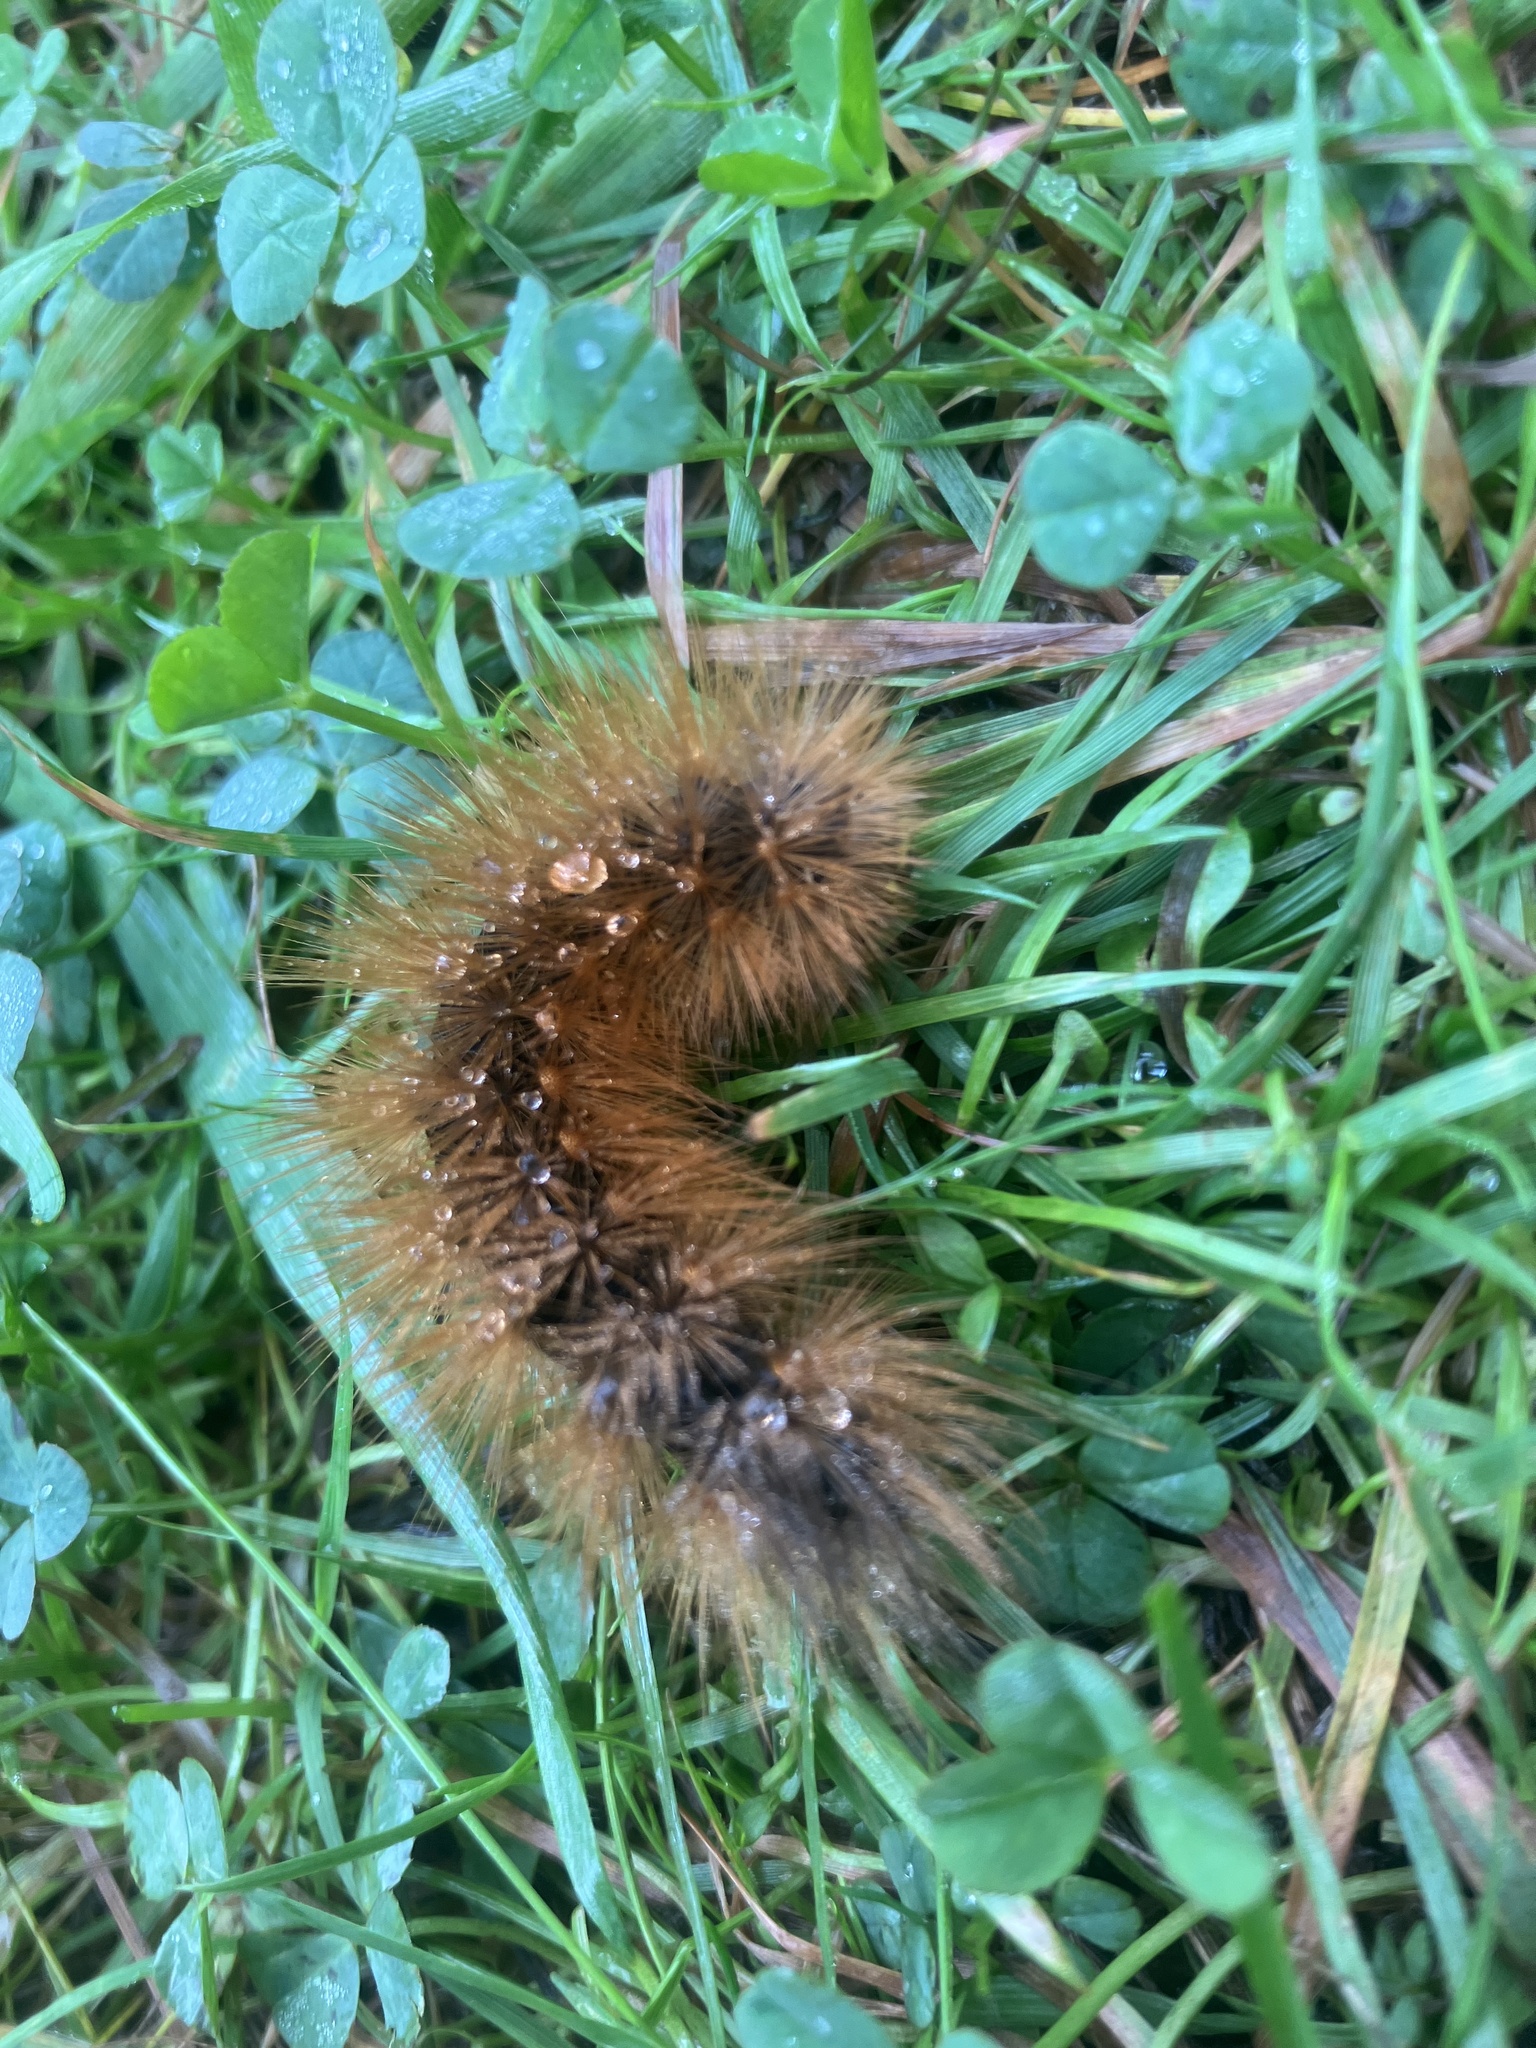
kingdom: Animalia
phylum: Arthropoda
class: Insecta
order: Lepidoptera
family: Erebidae
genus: Estigmene
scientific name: Estigmene acrea
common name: Salt marsh moth
